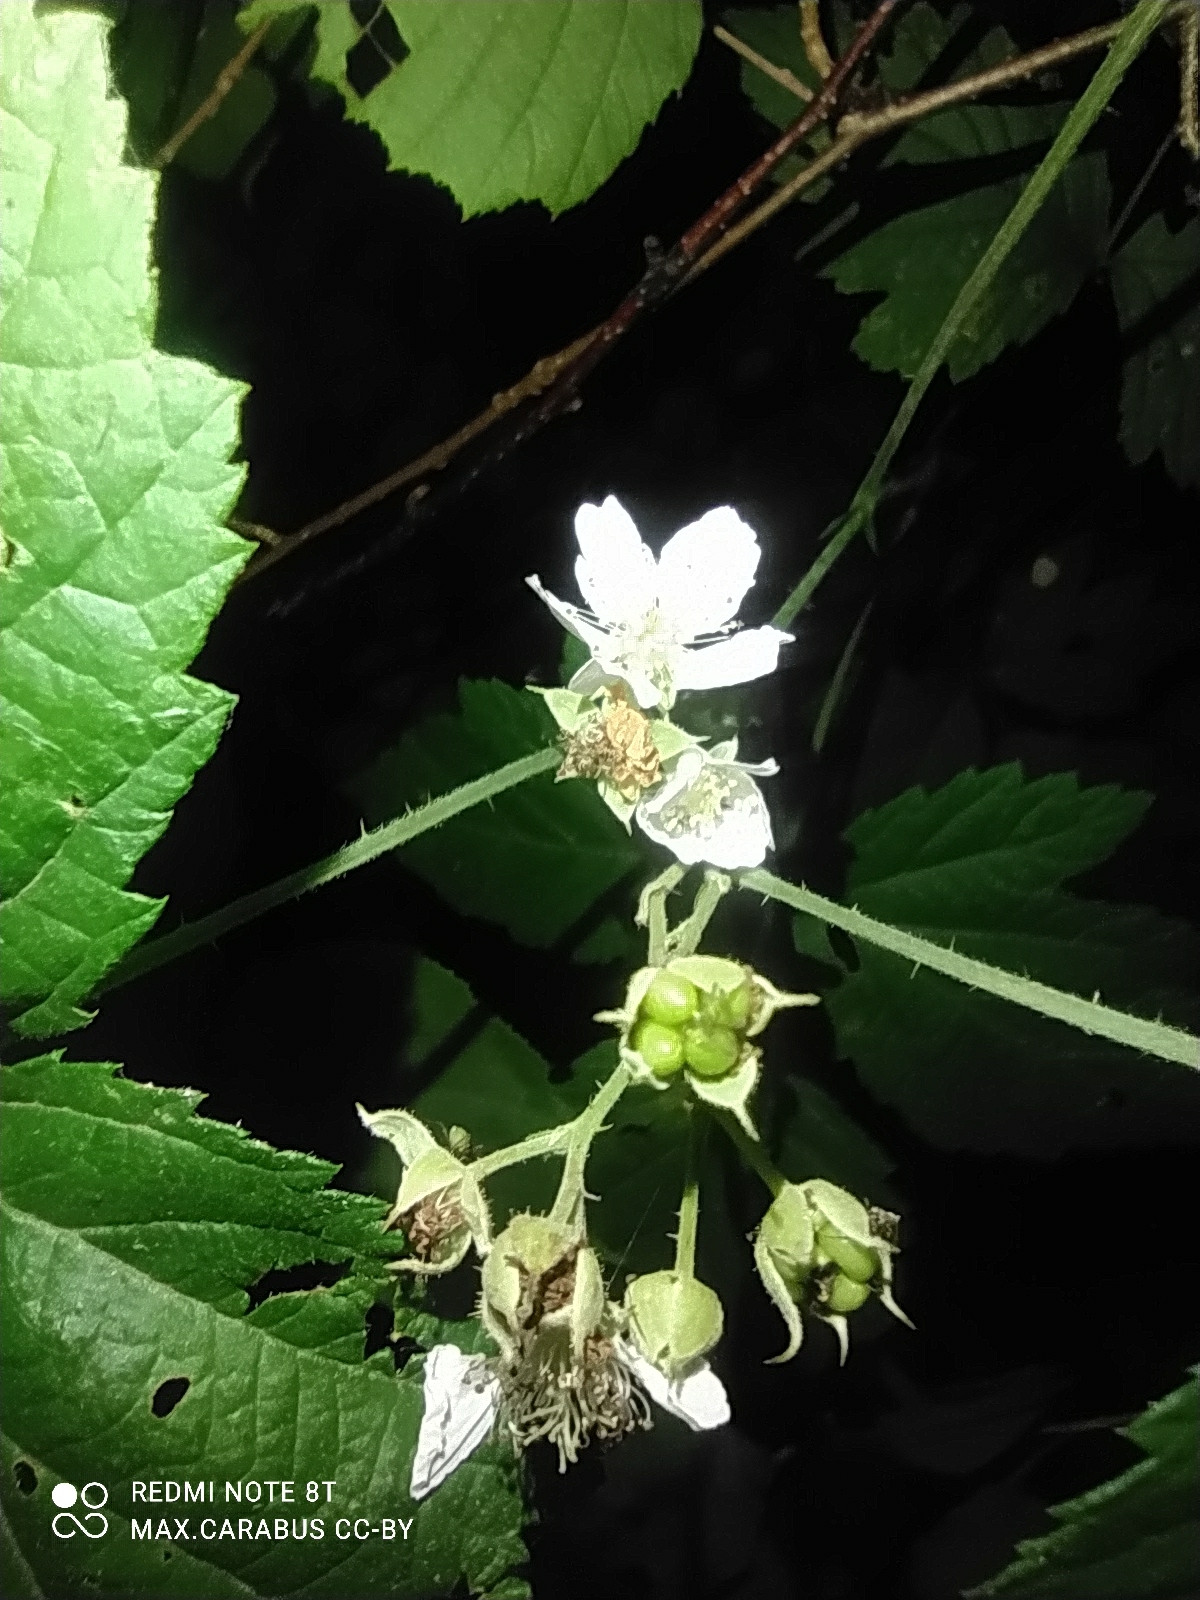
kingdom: Plantae
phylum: Tracheophyta
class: Magnoliopsida
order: Rosales
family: Rosaceae
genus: Rubus
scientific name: Rubus caesius
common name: Dewberry
